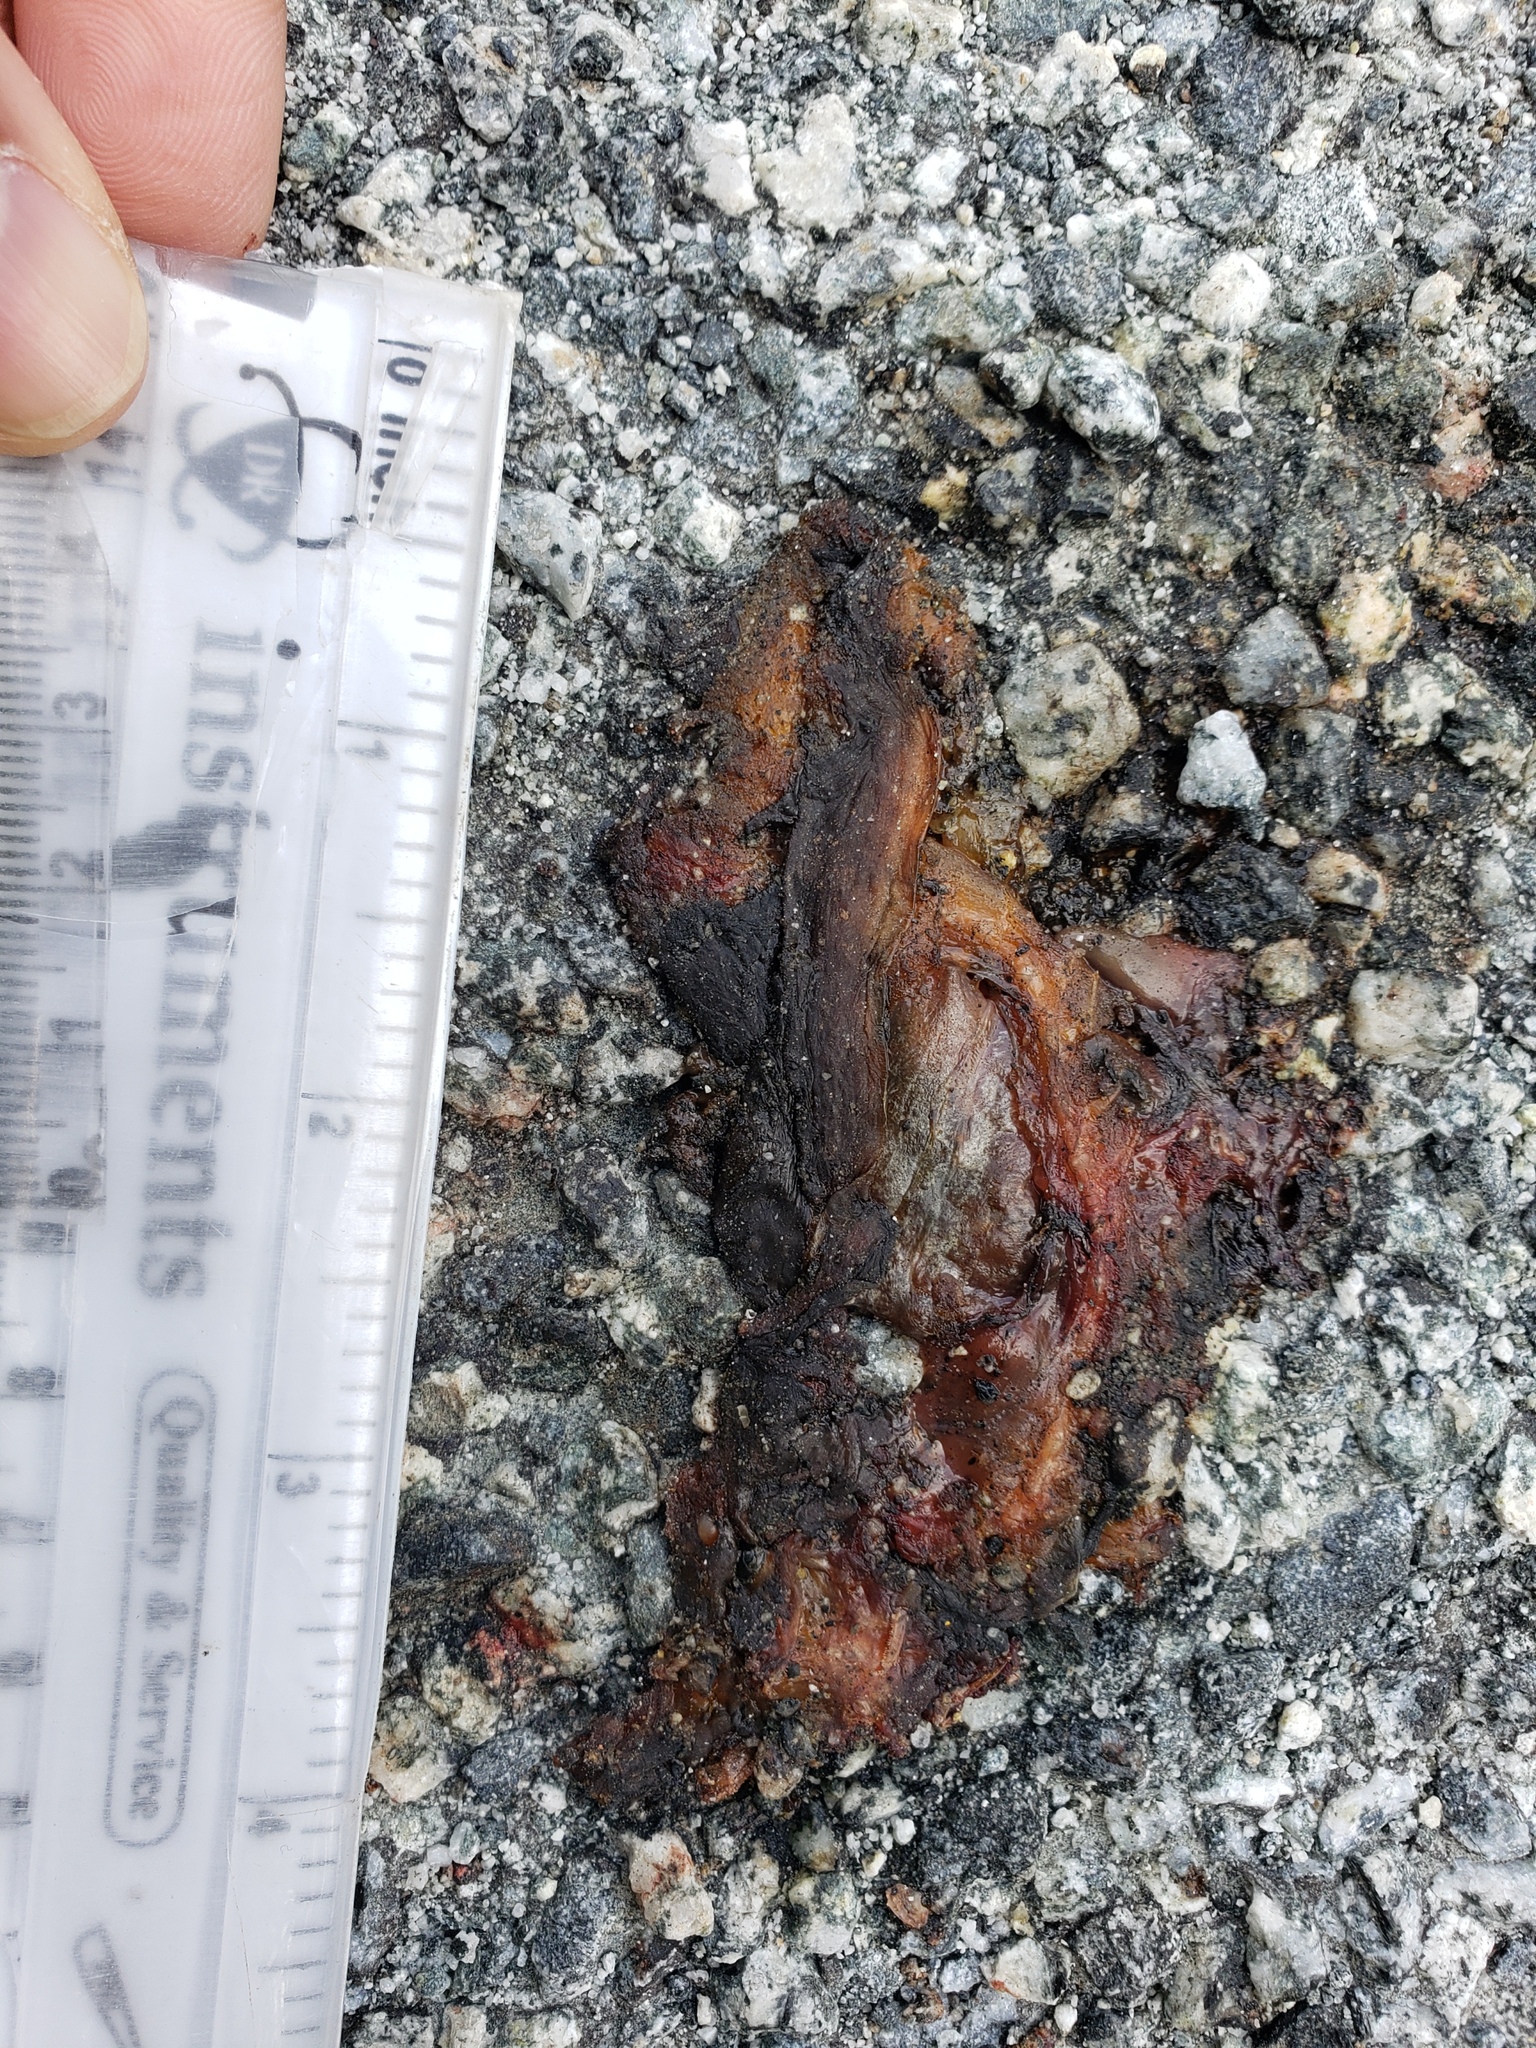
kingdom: Animalia
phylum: Chordata
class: Amphibia
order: Caudata
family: Salamandridae
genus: Taricha
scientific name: Taricha
